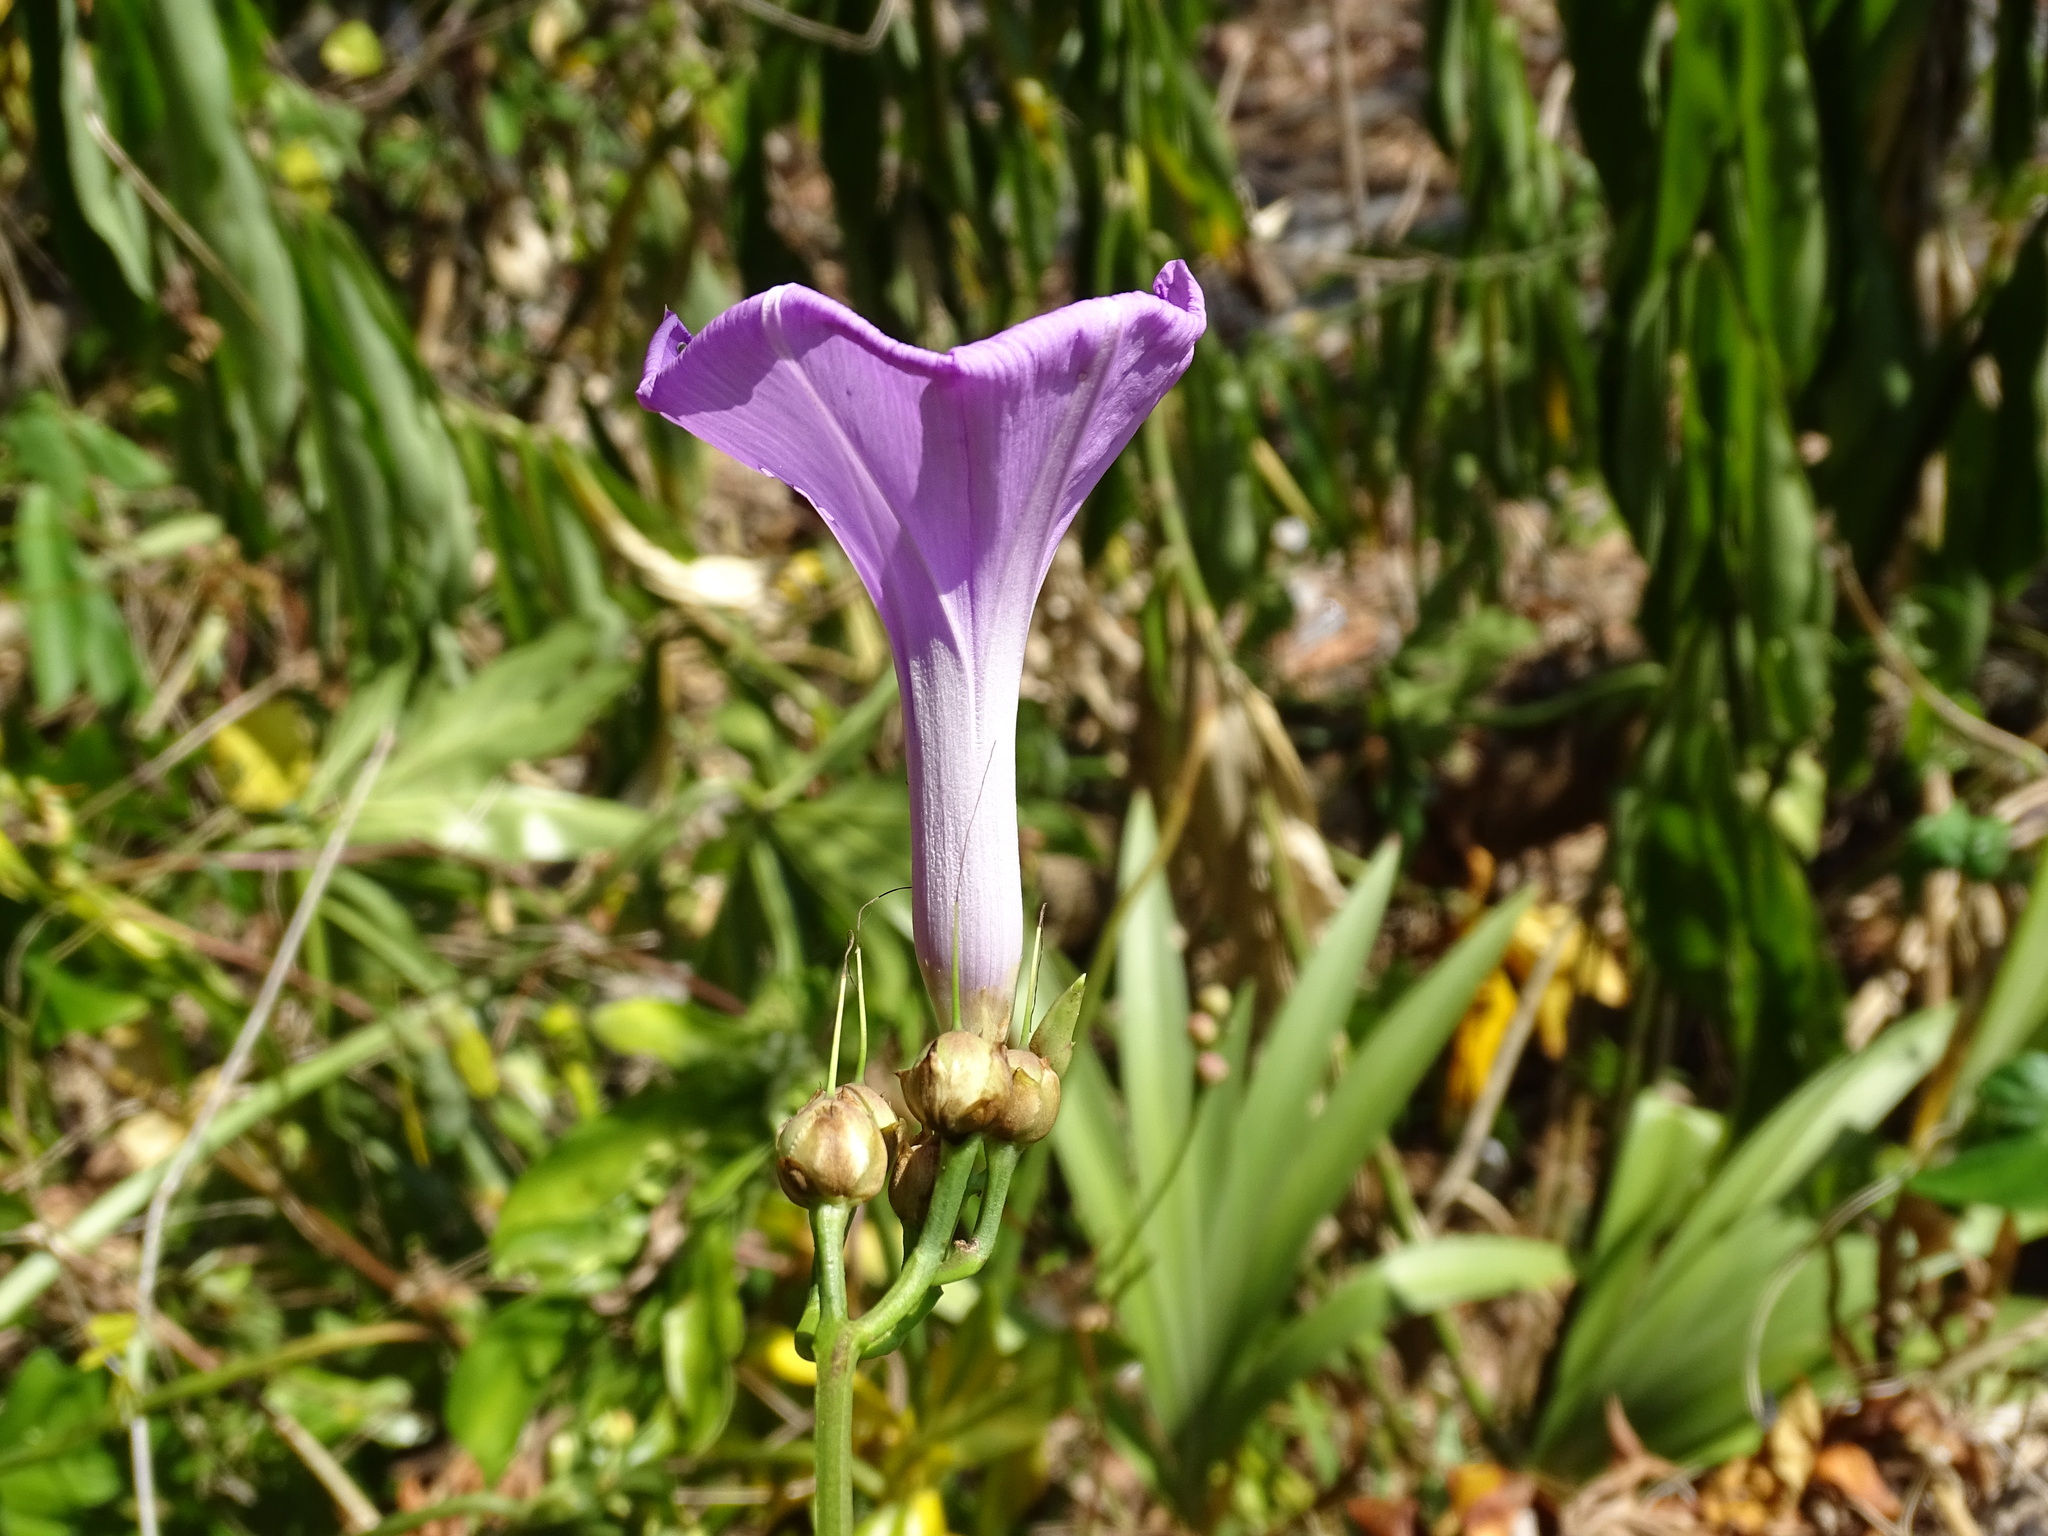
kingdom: Plantae
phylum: Tracheophyta
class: Magnoliopsida
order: Solanales
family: Convolvulaceae
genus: Ipomoea
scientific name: Ipomoea splendor-sylvae
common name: Morning glory
